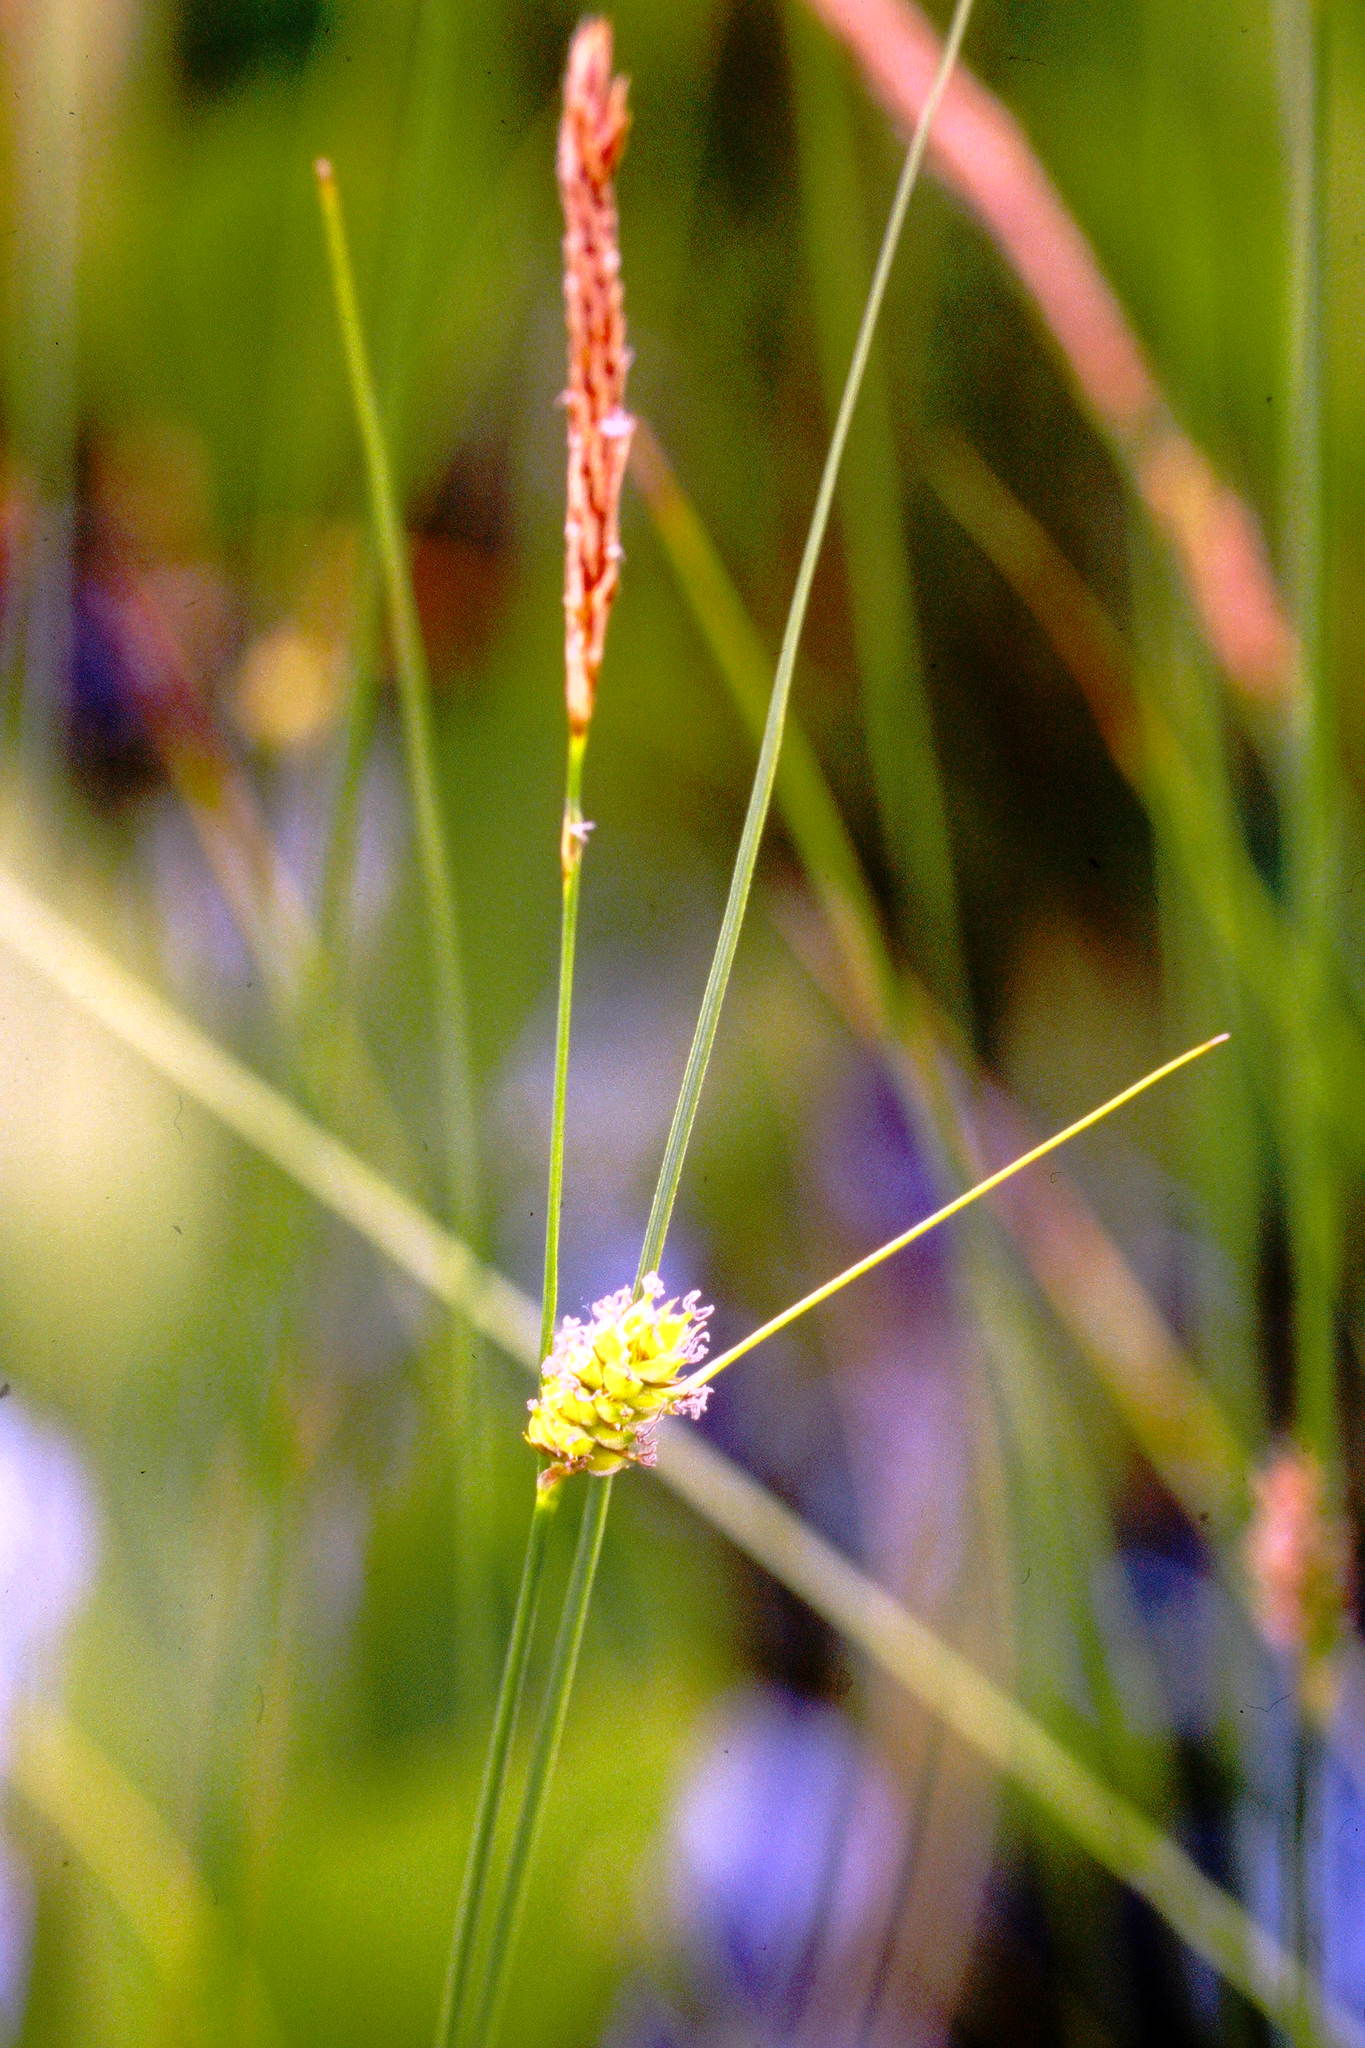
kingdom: Plantae
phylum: Tracheophyta
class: Liliopsida
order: Poales
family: Cyperaceae
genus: Carex
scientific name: Carex lasiocarpa
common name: Slender sedge
